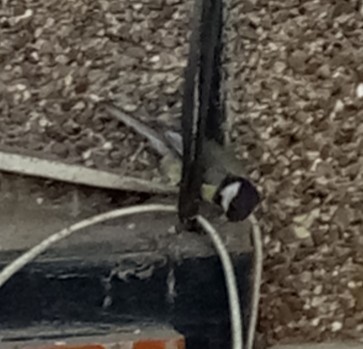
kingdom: Animalia
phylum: Chordata
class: Aves
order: Passeriformes
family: Paridae
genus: Parus
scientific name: Parus major
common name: Great tit
